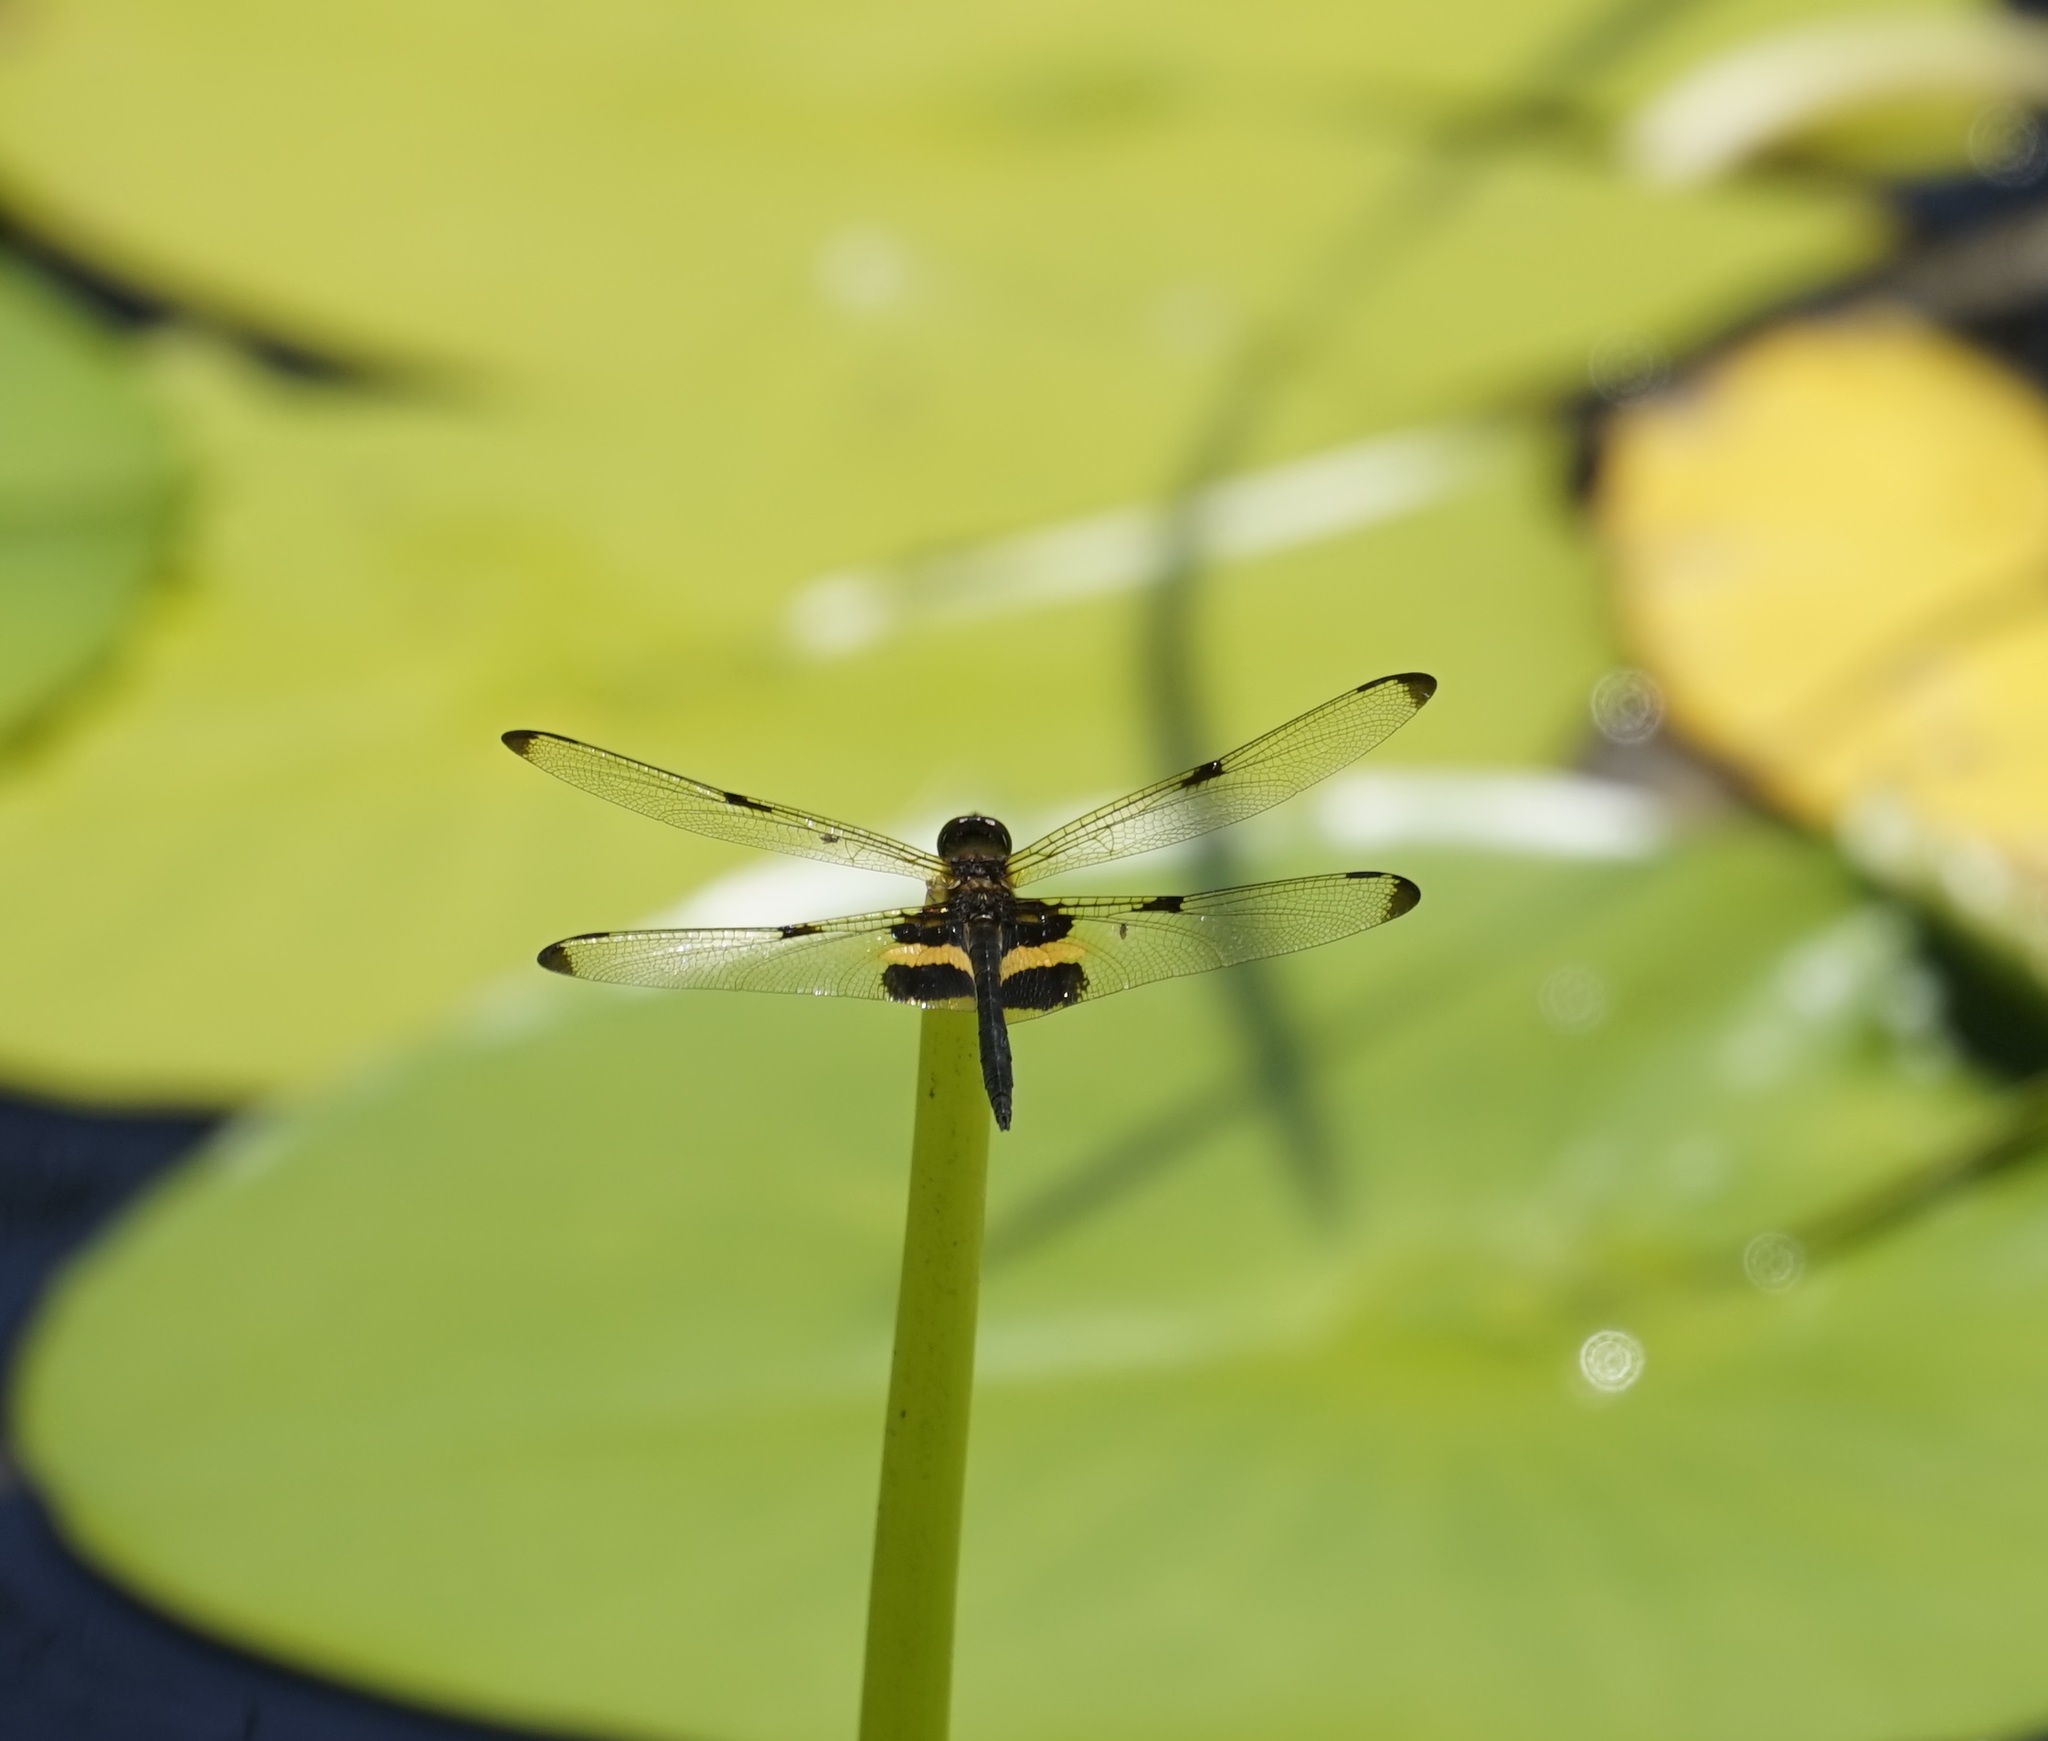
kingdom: Animalia
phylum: Arthropoda
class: Insecta
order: Odonata
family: Libellulidae
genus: Rhyothemis
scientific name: Rhyothemis phyllis
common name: Yellow-barred flutterer
